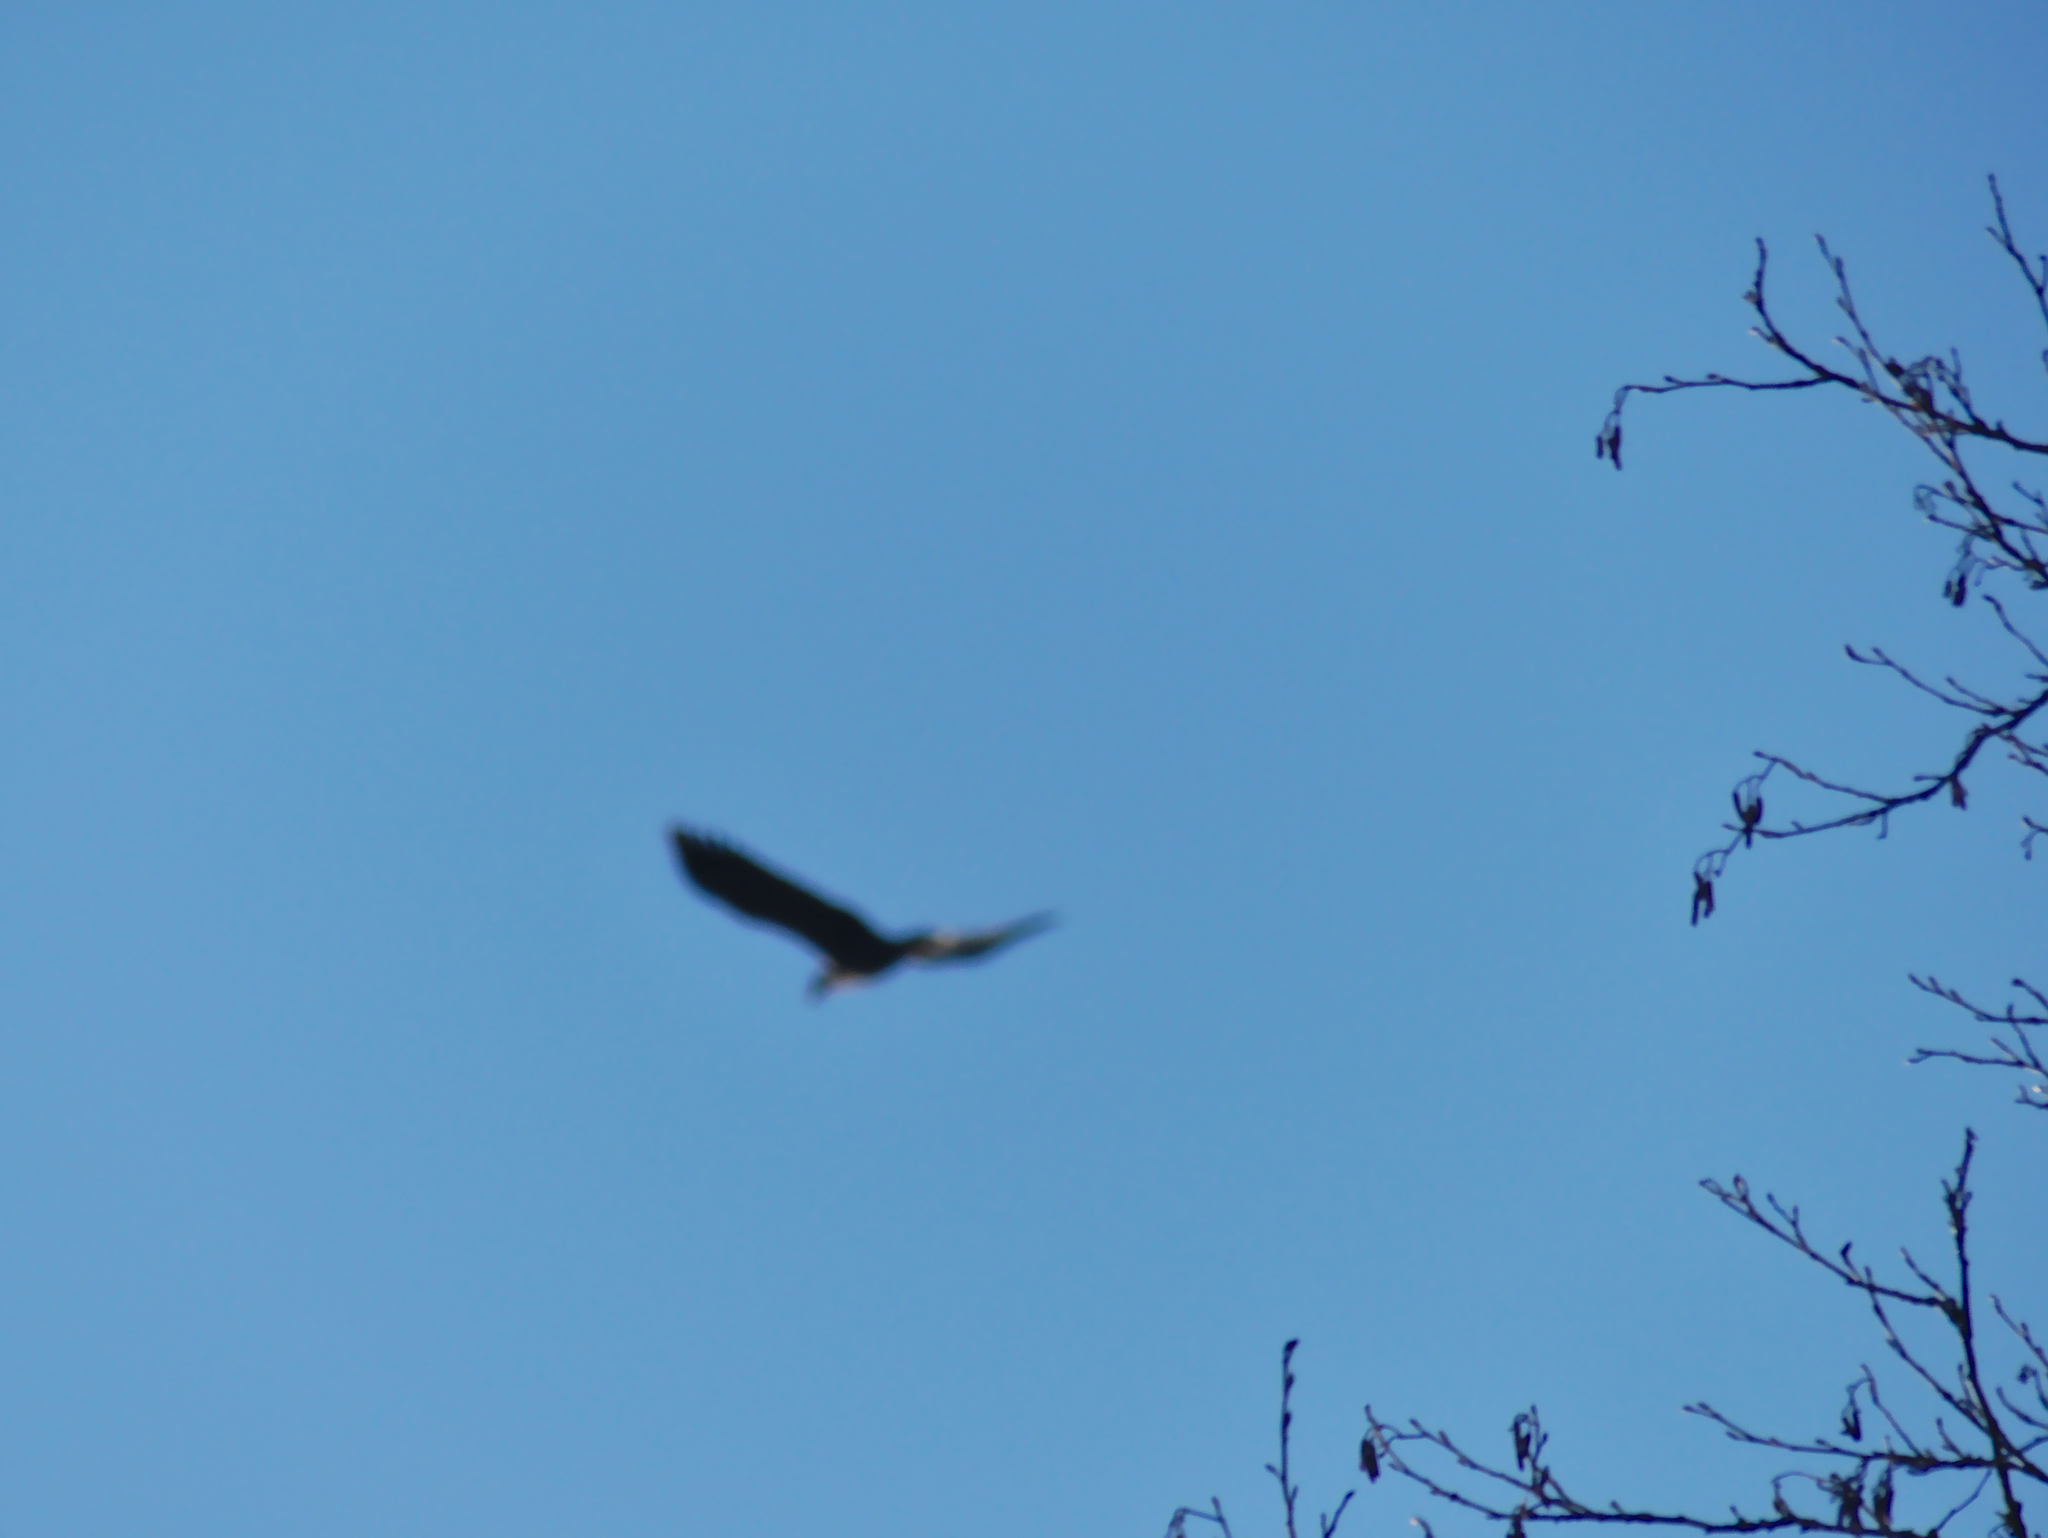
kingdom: Animalia
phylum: Chordata
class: Aves
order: Accipitriformes
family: Accipitridae
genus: Haliaeetus
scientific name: Haliaeetus albicilla
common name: White-tailed eagle
